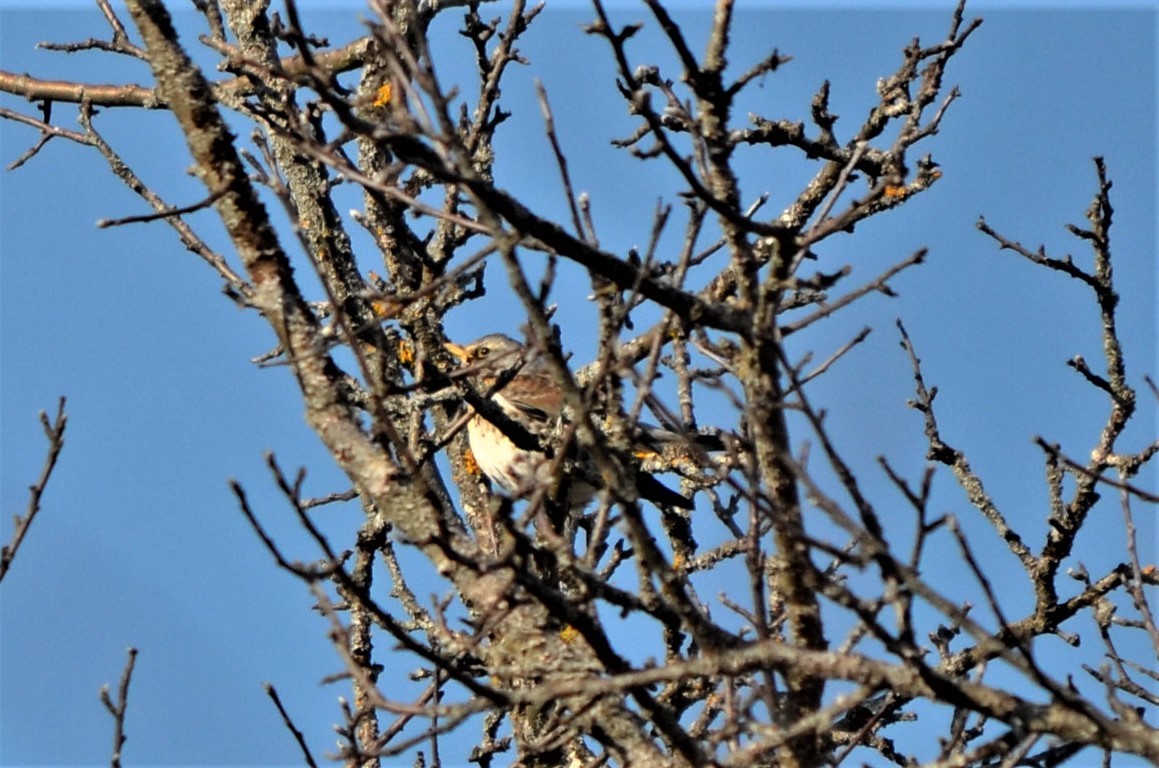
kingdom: Animalia
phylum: Chordata
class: Aves
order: Passeriformes
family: Turdidae
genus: Turdus
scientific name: Turdus pilaris
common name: Fieldfare
